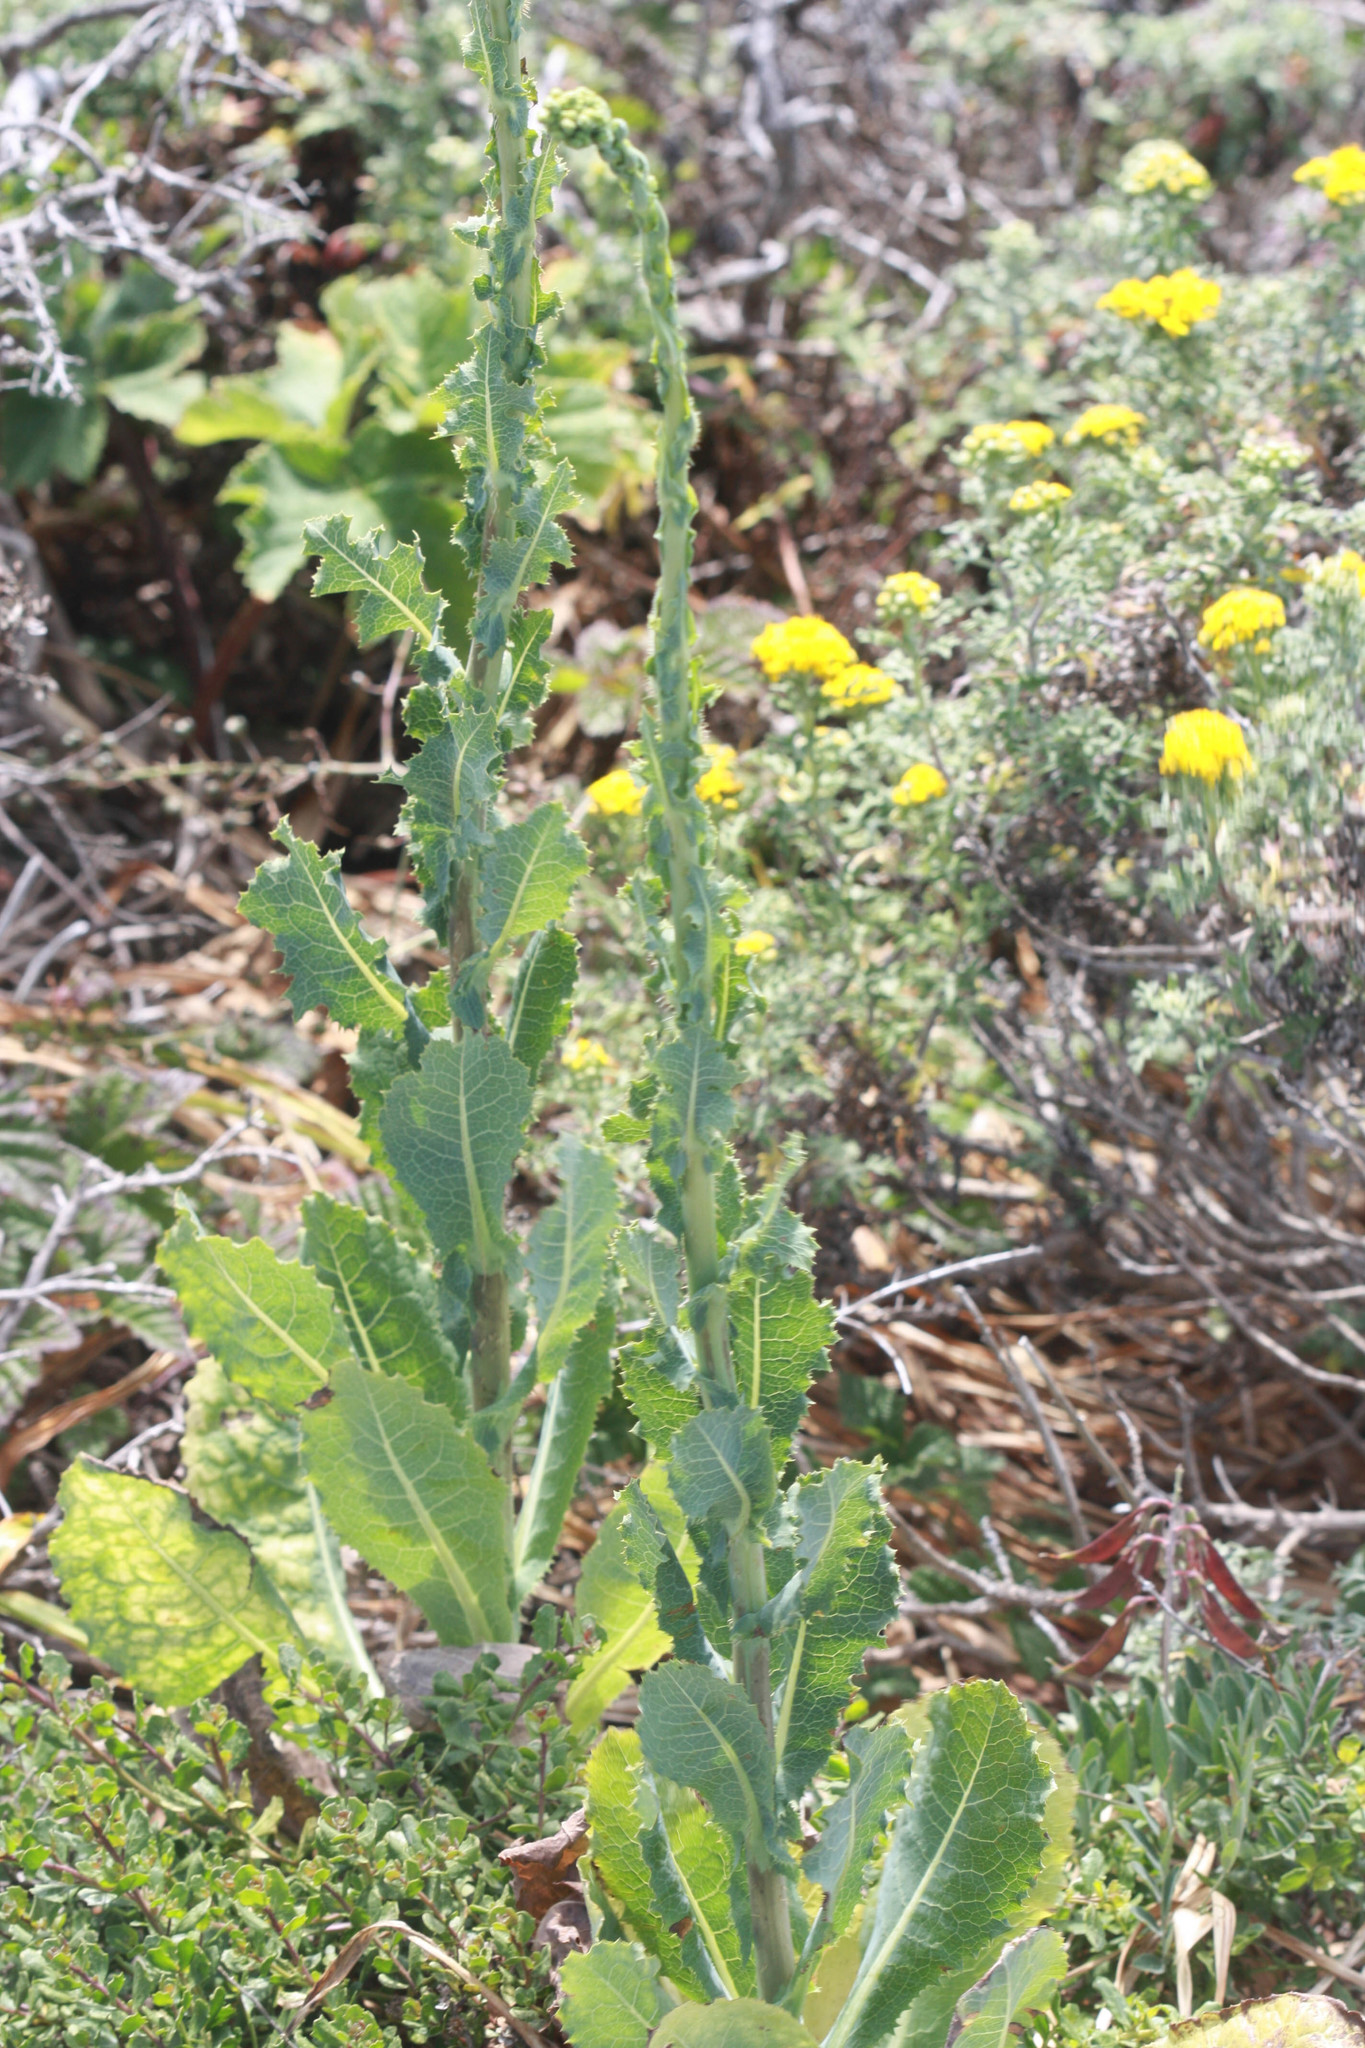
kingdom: Plantae
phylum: Tracheophyta
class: Magnoliopsida
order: Asterales
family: Asteraceae
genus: Lactuca
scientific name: Lactuca serriola
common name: Prickly lettuce
